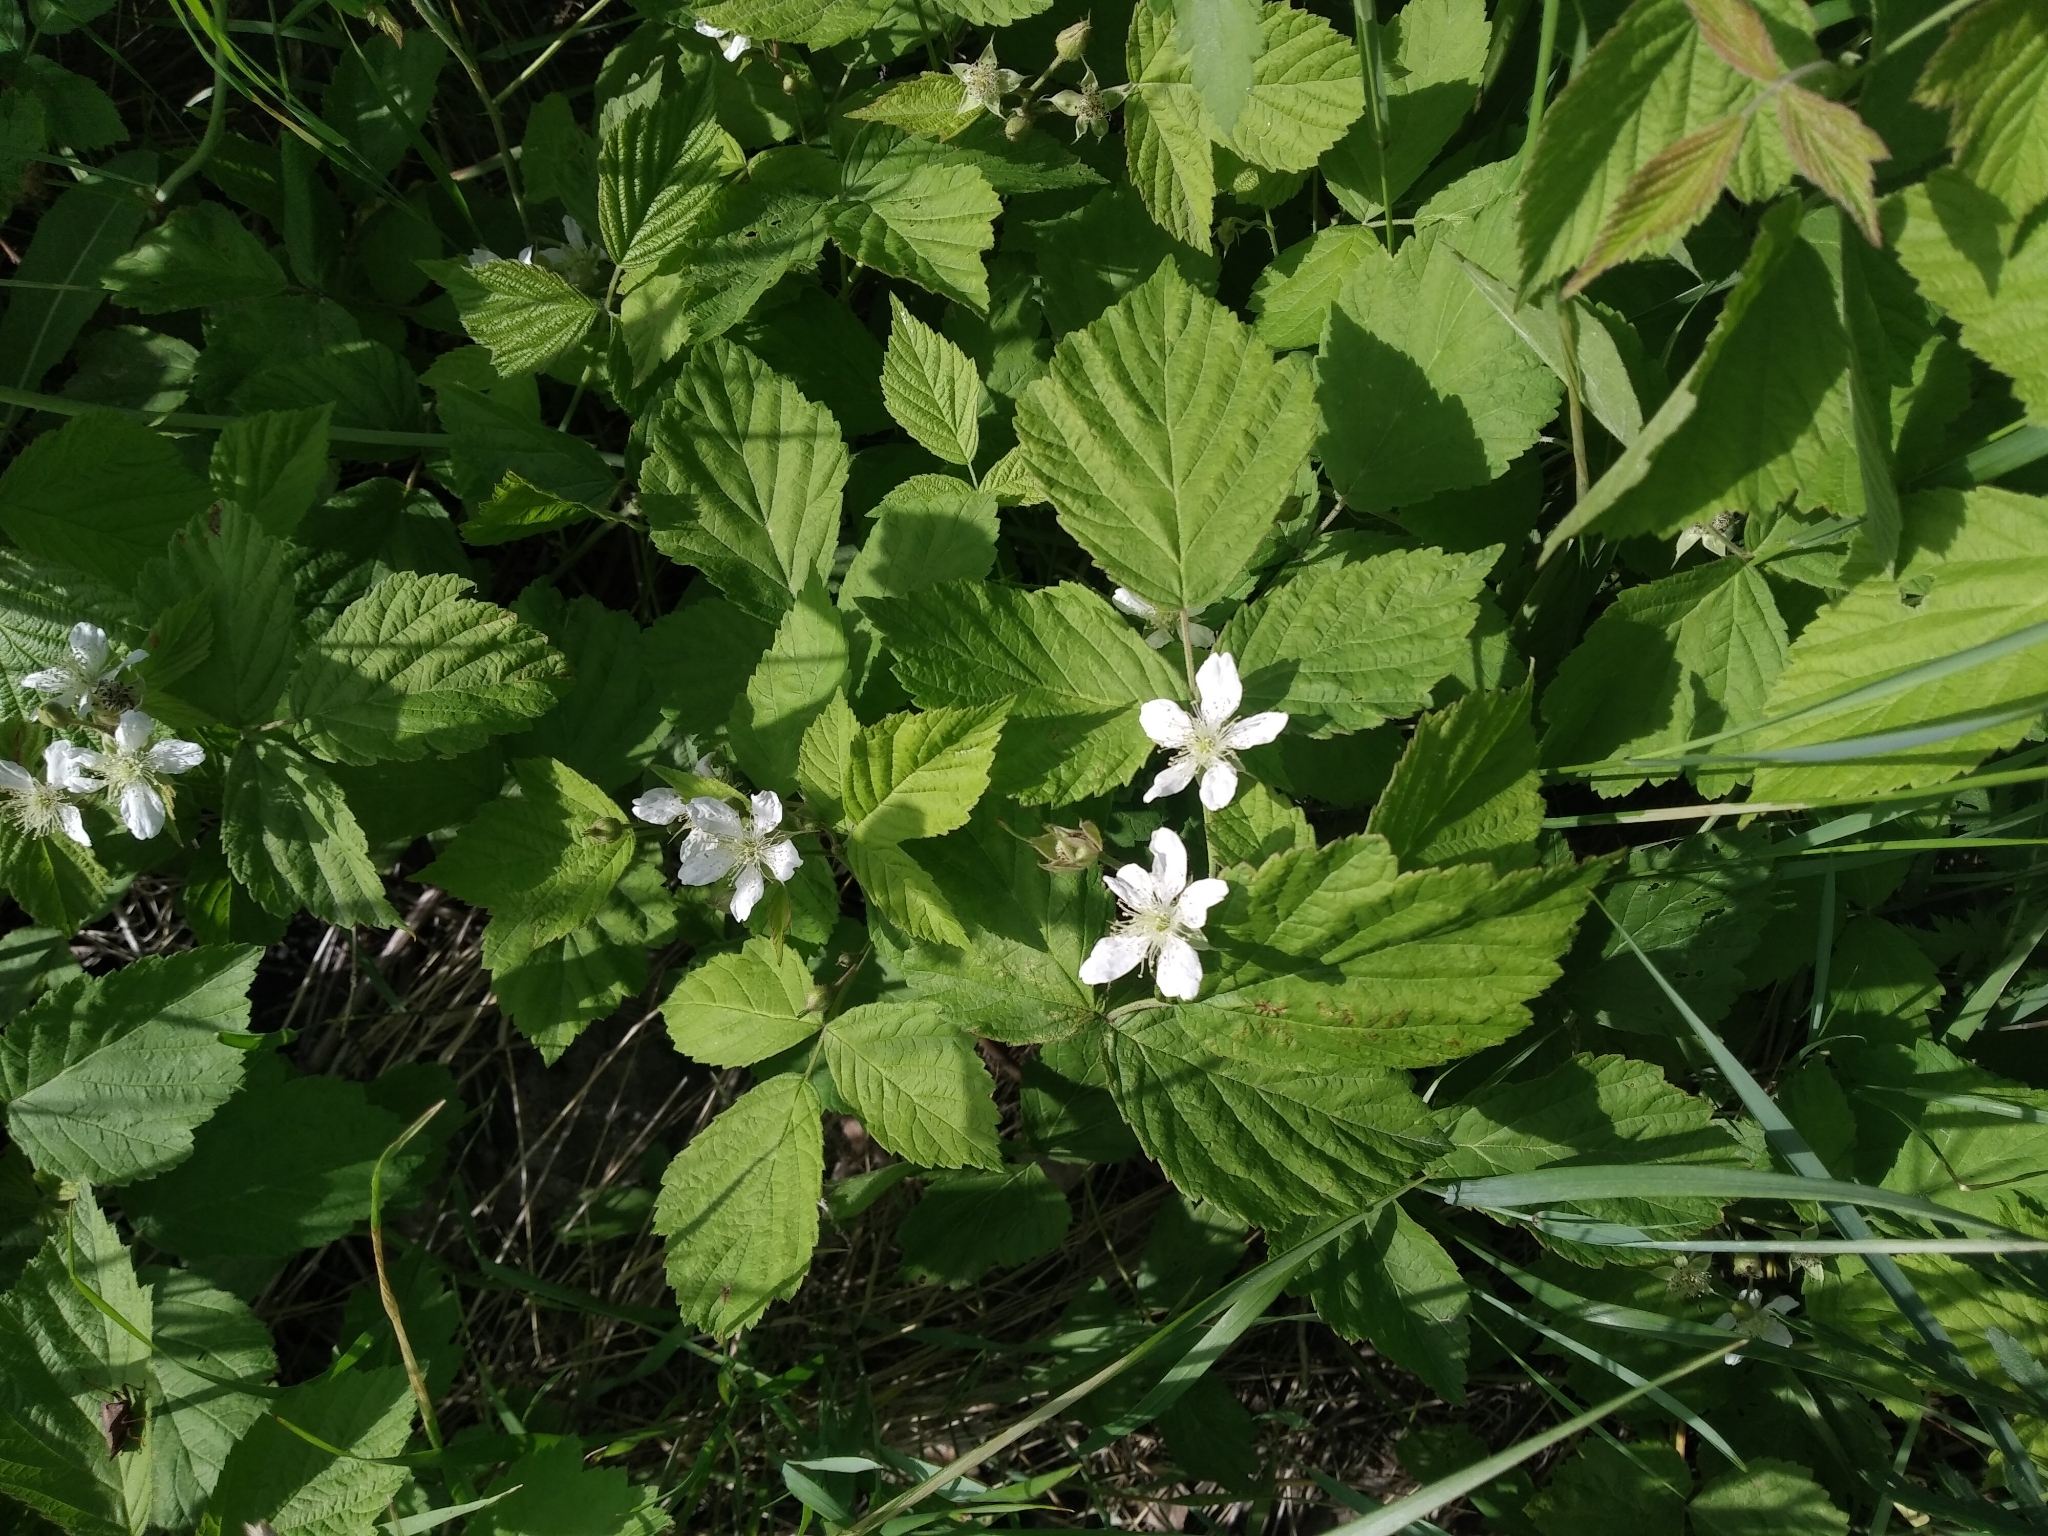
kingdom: Plantae
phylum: Tracheophyta
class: Magnoliopsida
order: Rosales
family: Rosaceae
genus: Rubus
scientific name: Rubus caesius
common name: Dewberry
